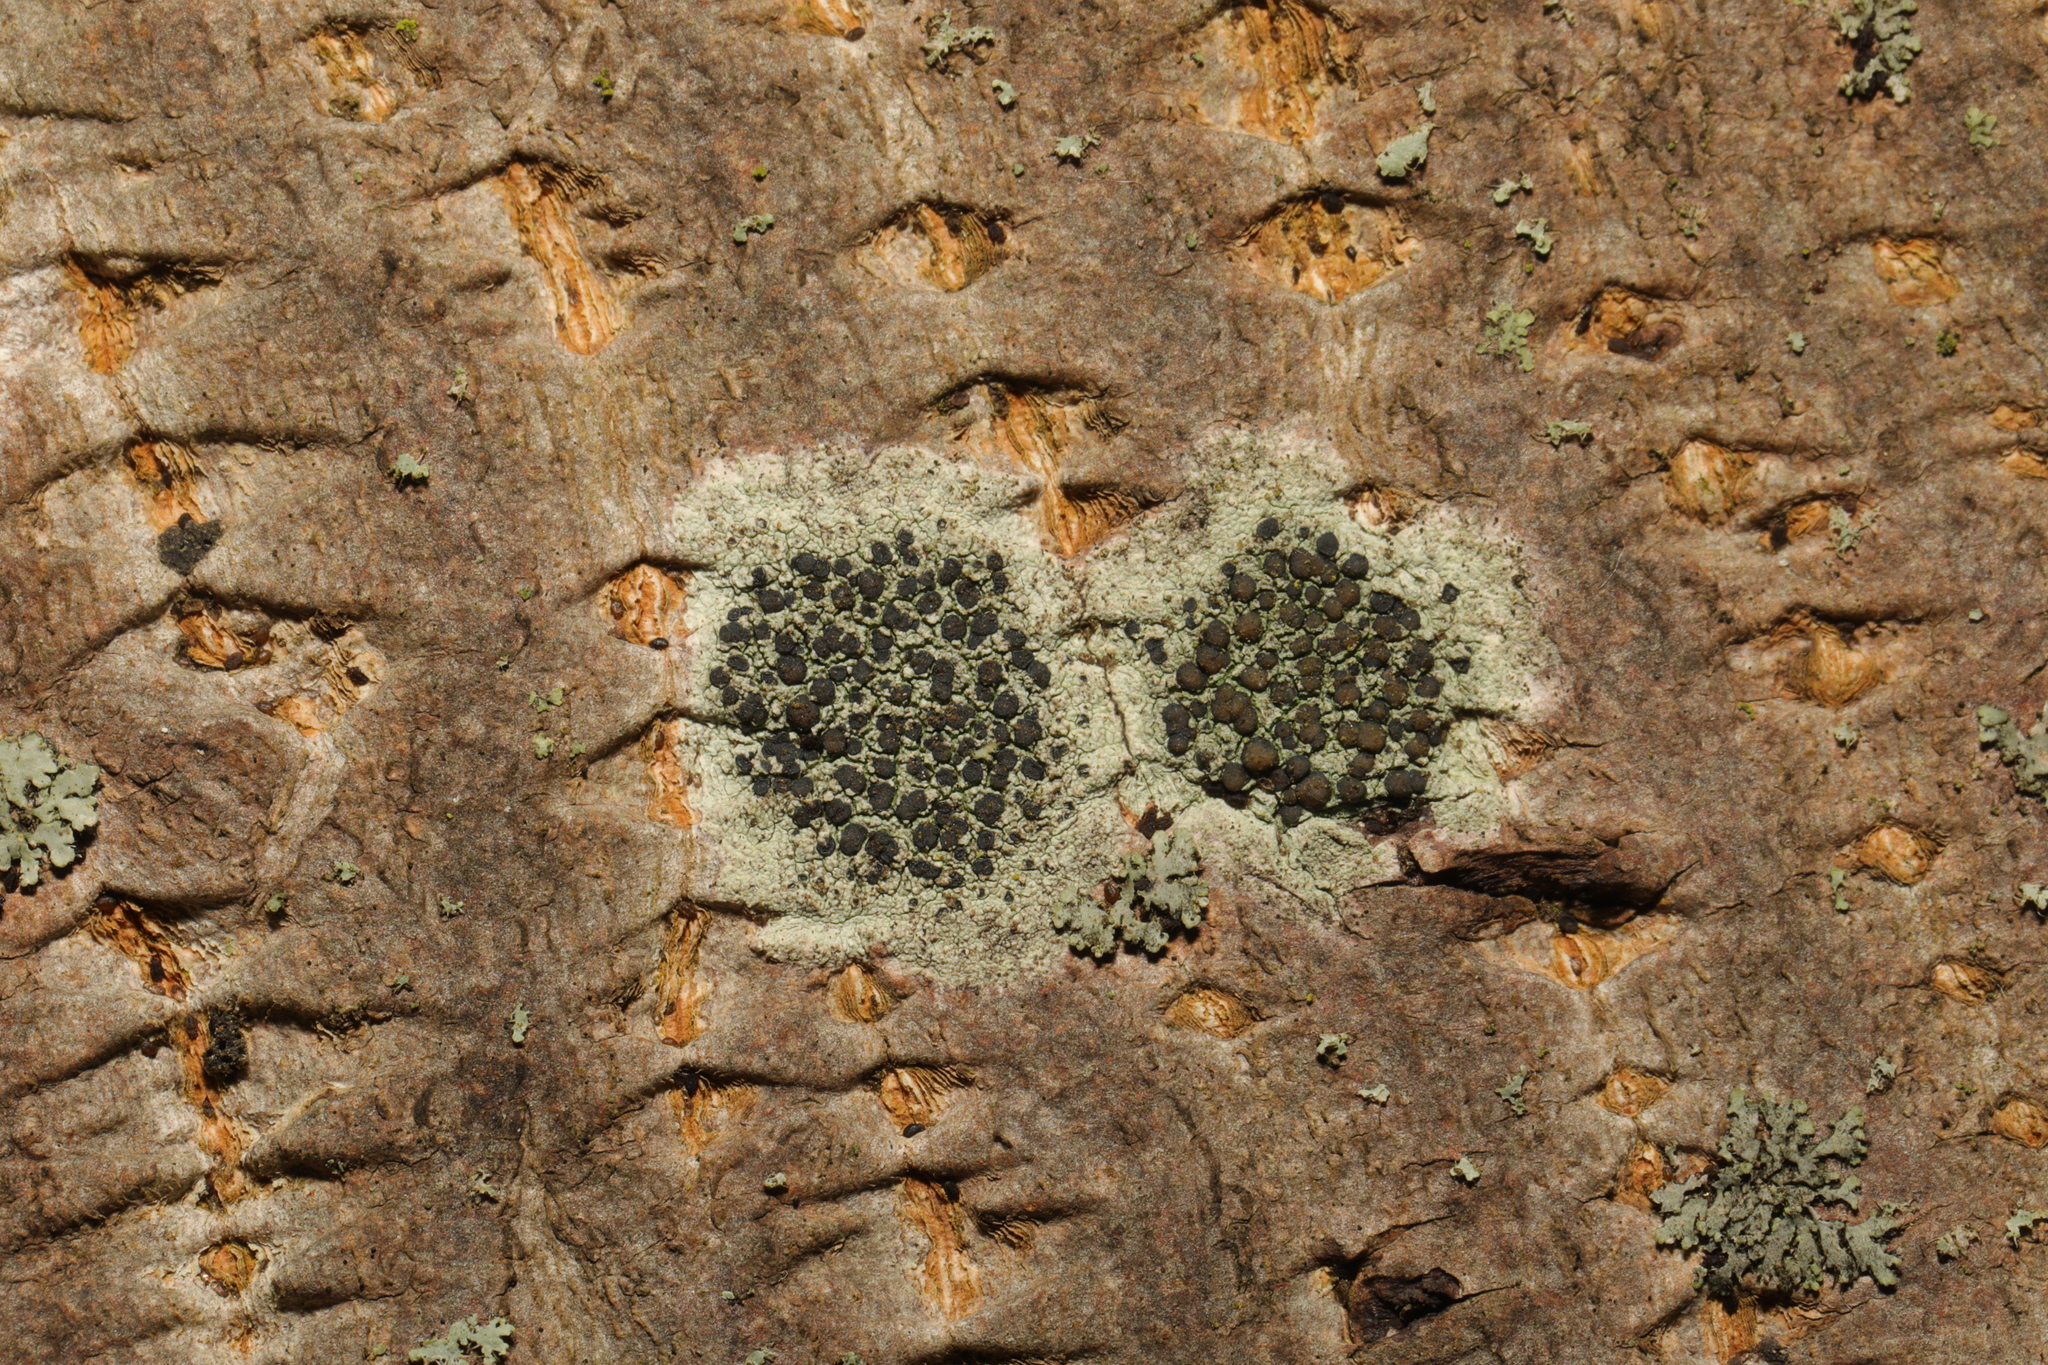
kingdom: Fungi
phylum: Ascomycota
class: Lecanoromycetes
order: Lecanorales
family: Lecanoraceae
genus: Lecidella
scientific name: Lecidella elaeochroma
